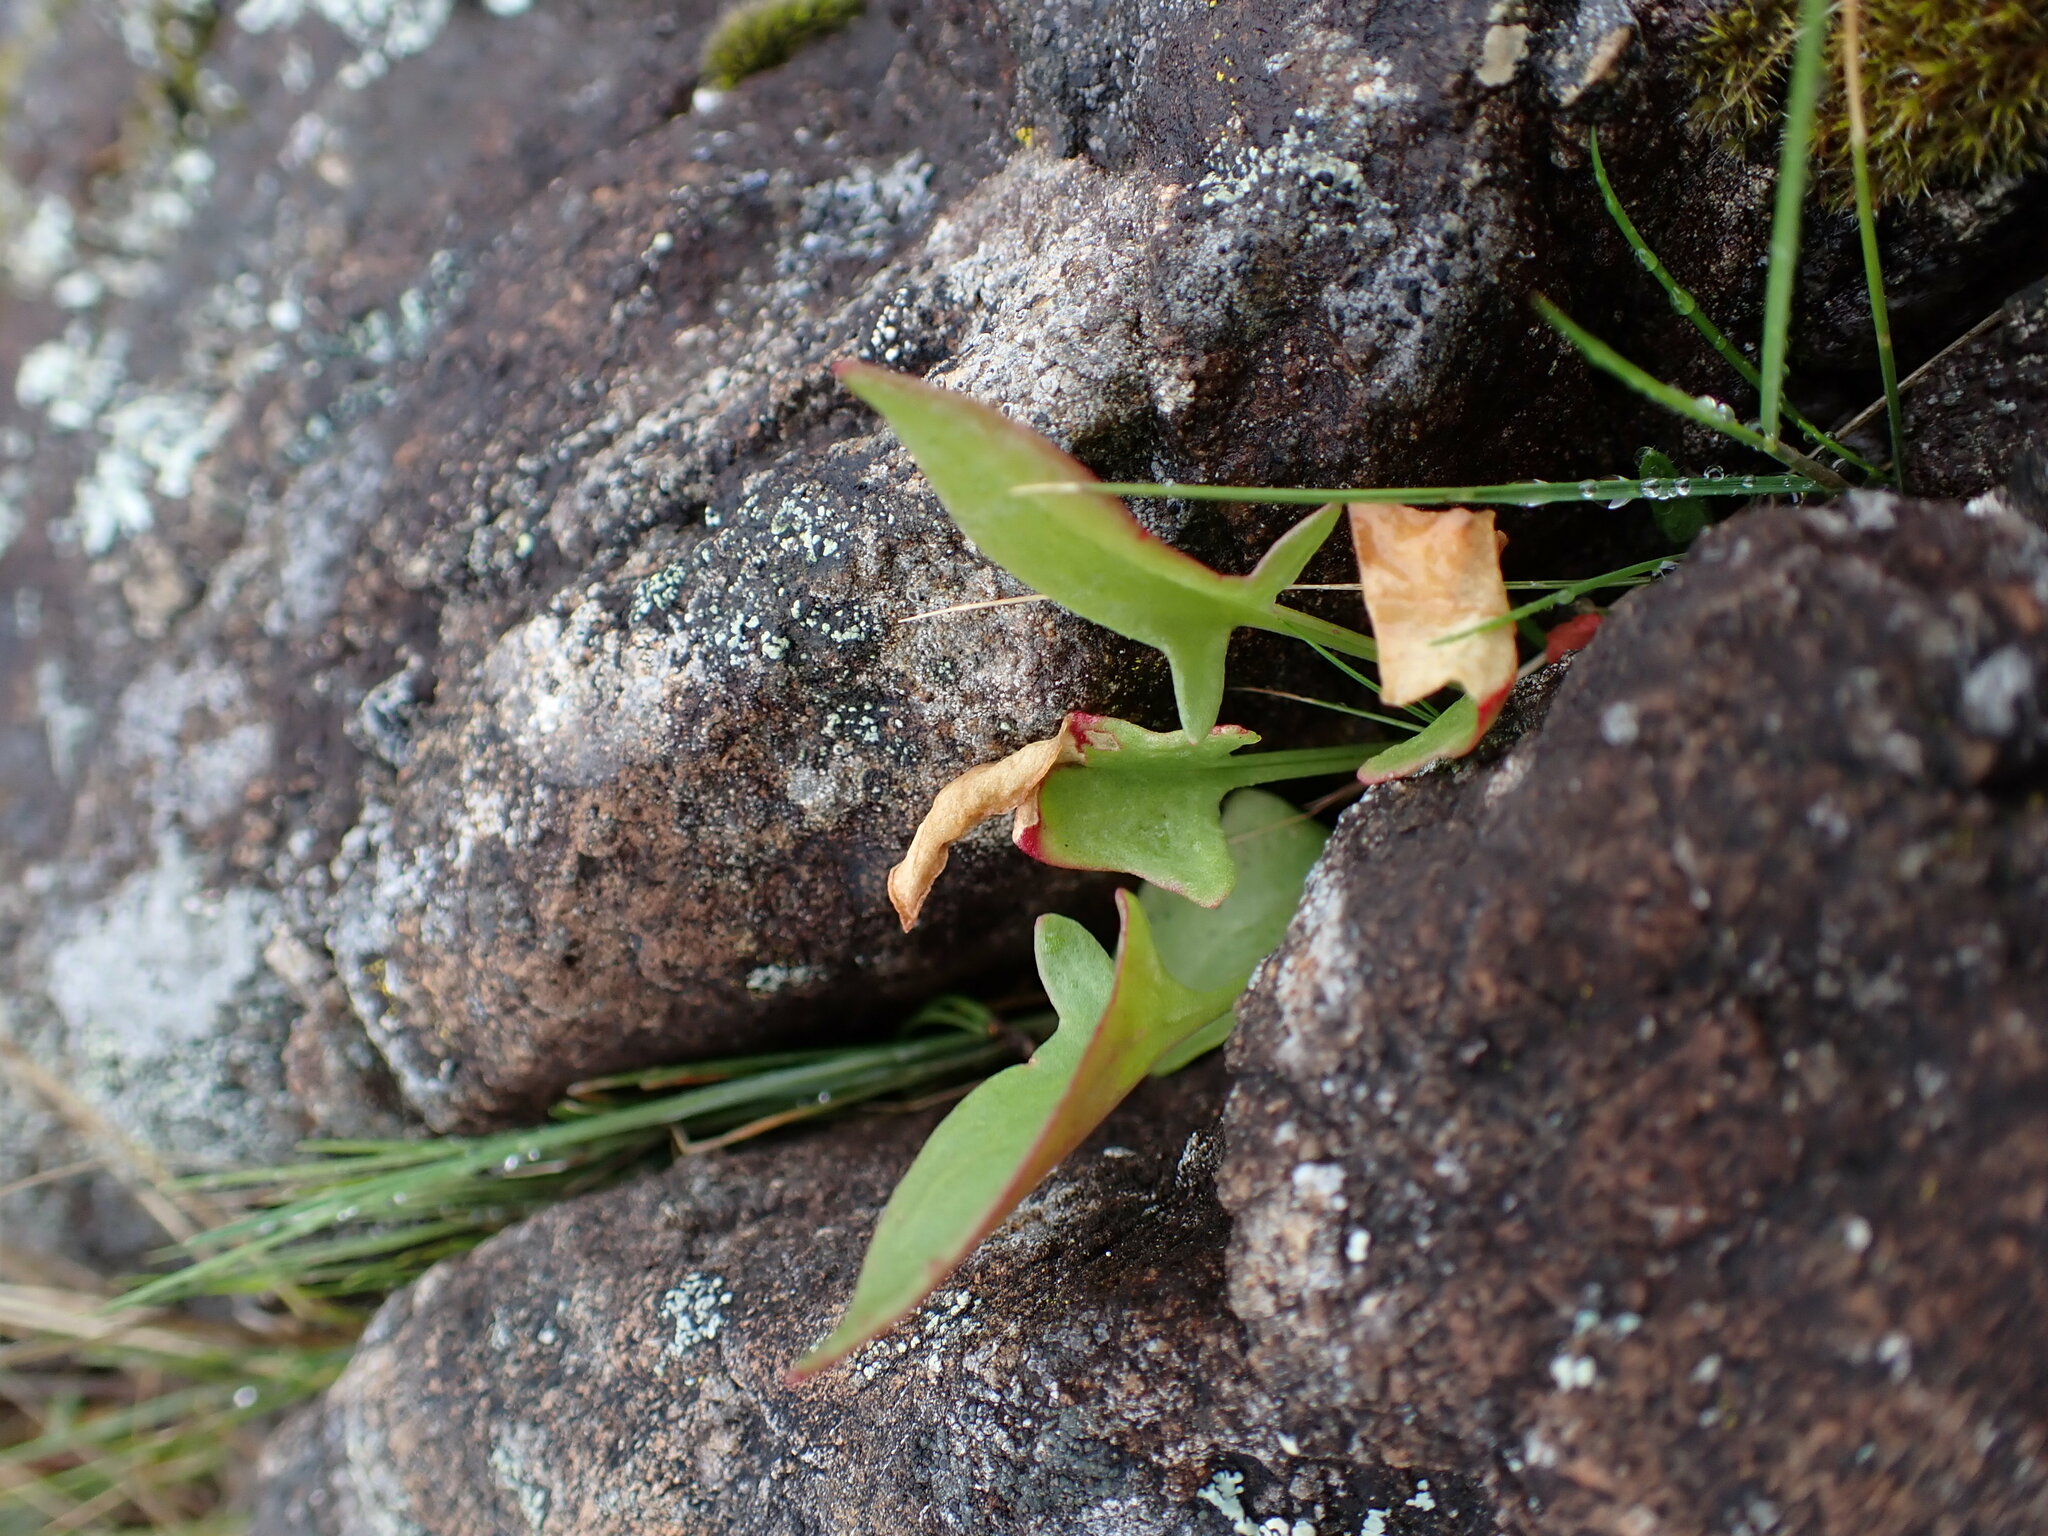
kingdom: Plantae
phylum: Tracheophyta
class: Magnoliopsida
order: Caryophyllales
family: Polygonaceae
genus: Rumex
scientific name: Rumex acetosella
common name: Common sheep sorrel
